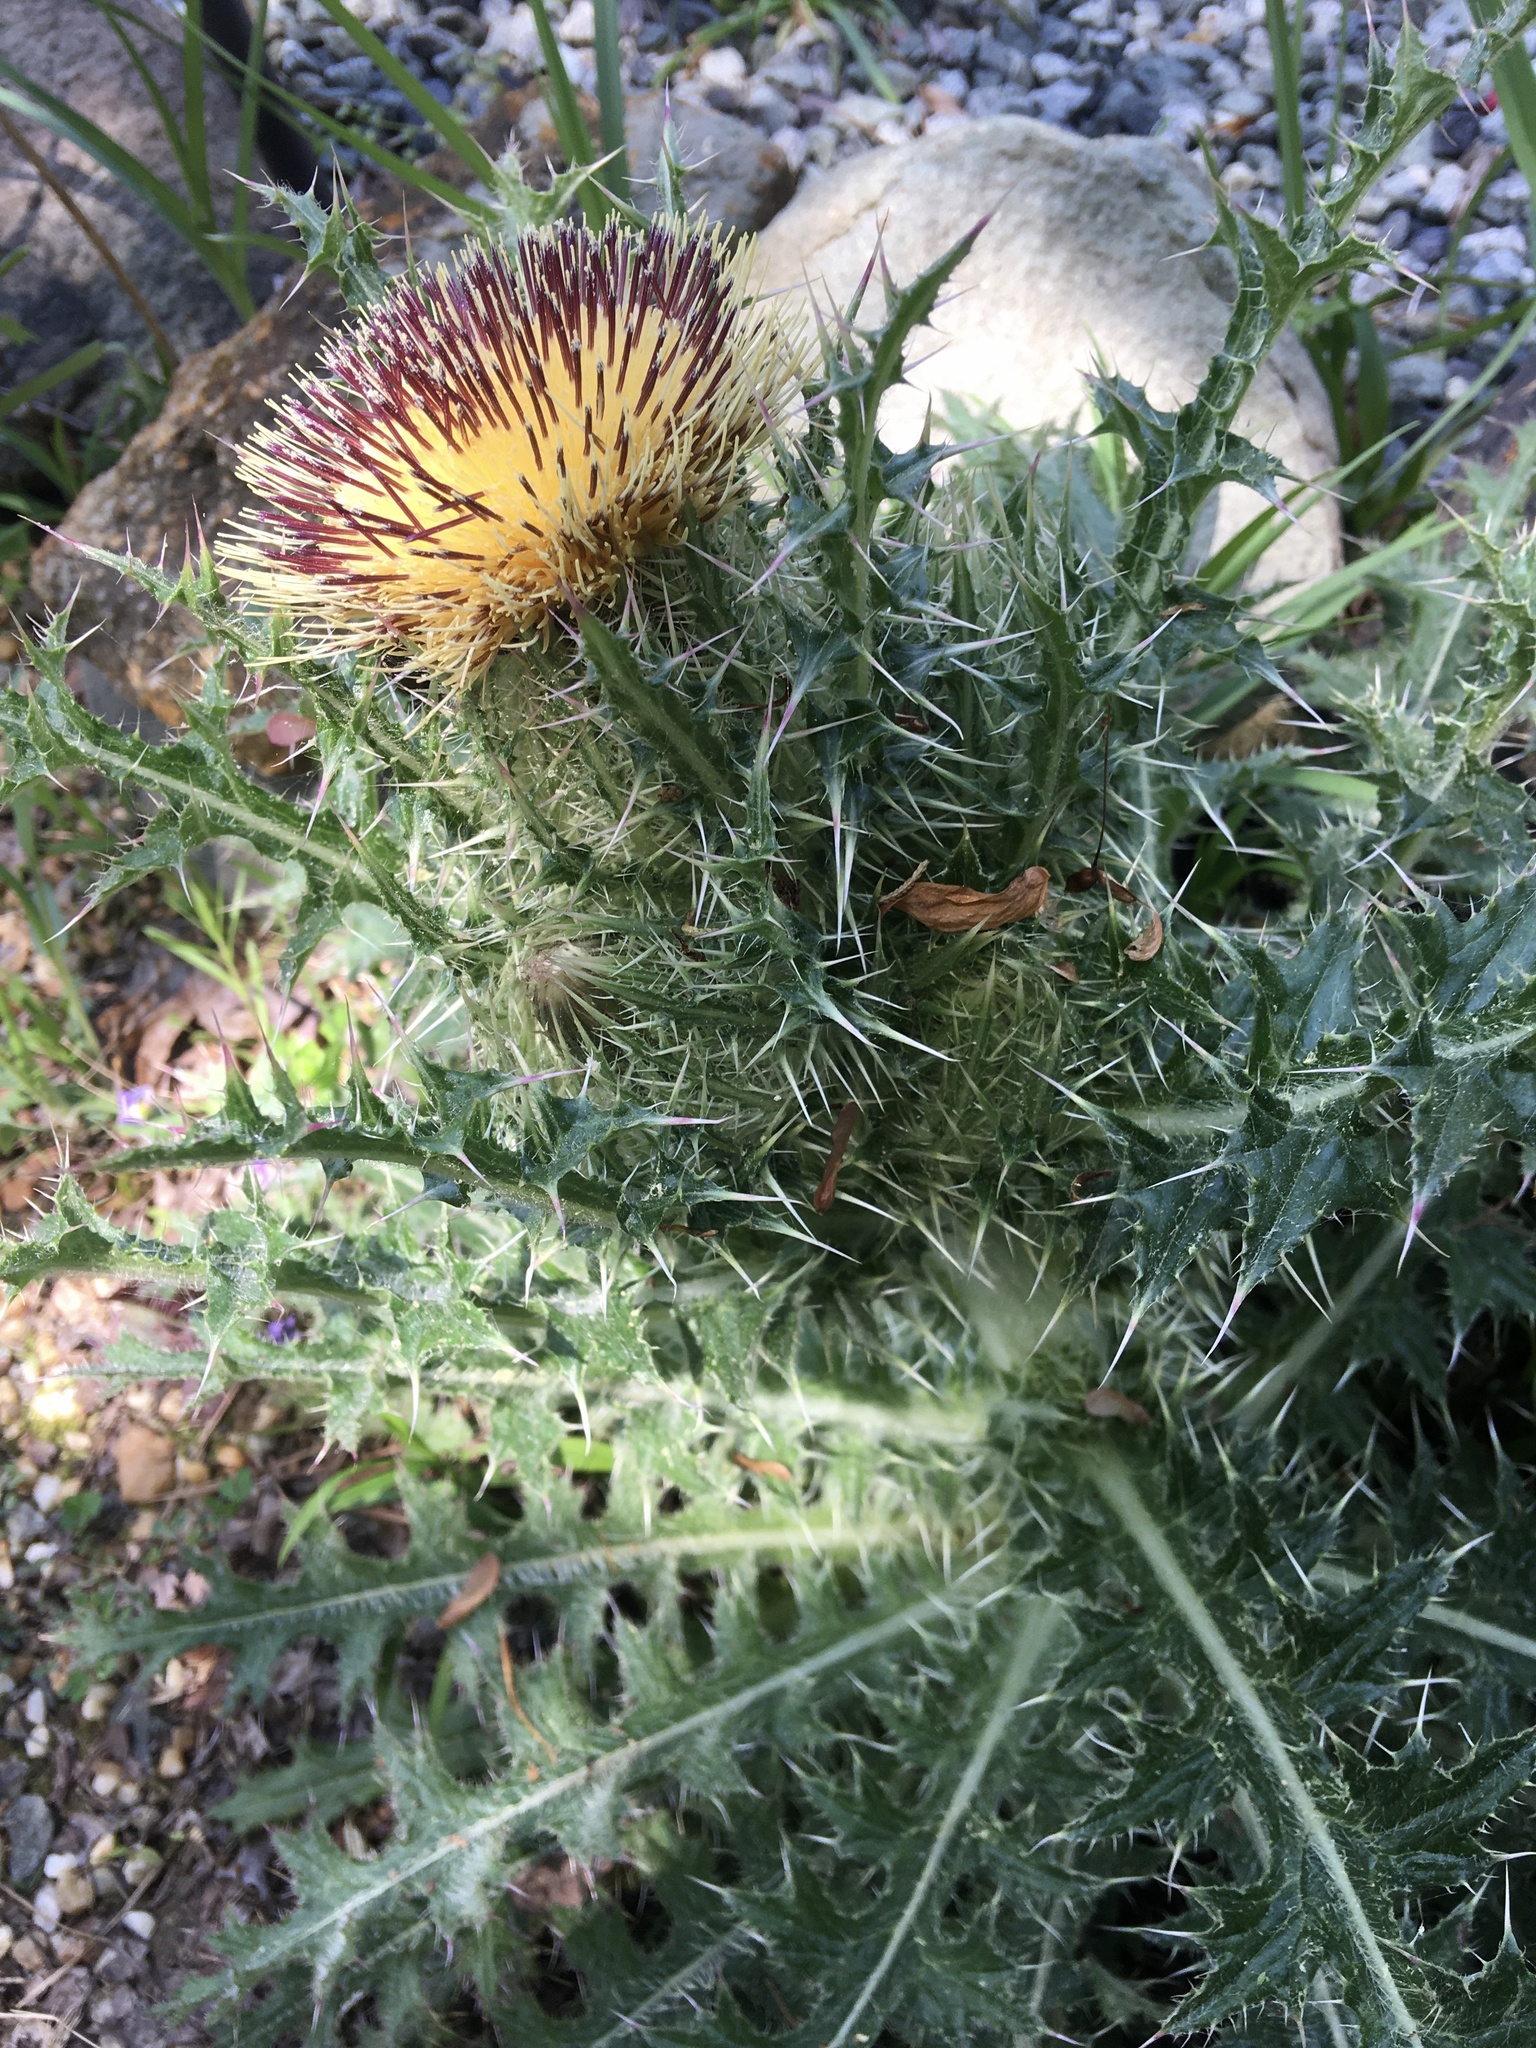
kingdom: Plantae
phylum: Tracheophyta
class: Magnoliopsida
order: Asterales
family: Asteraceae
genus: Cirsium
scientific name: Cirsium horridulum
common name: Bristly thistle
